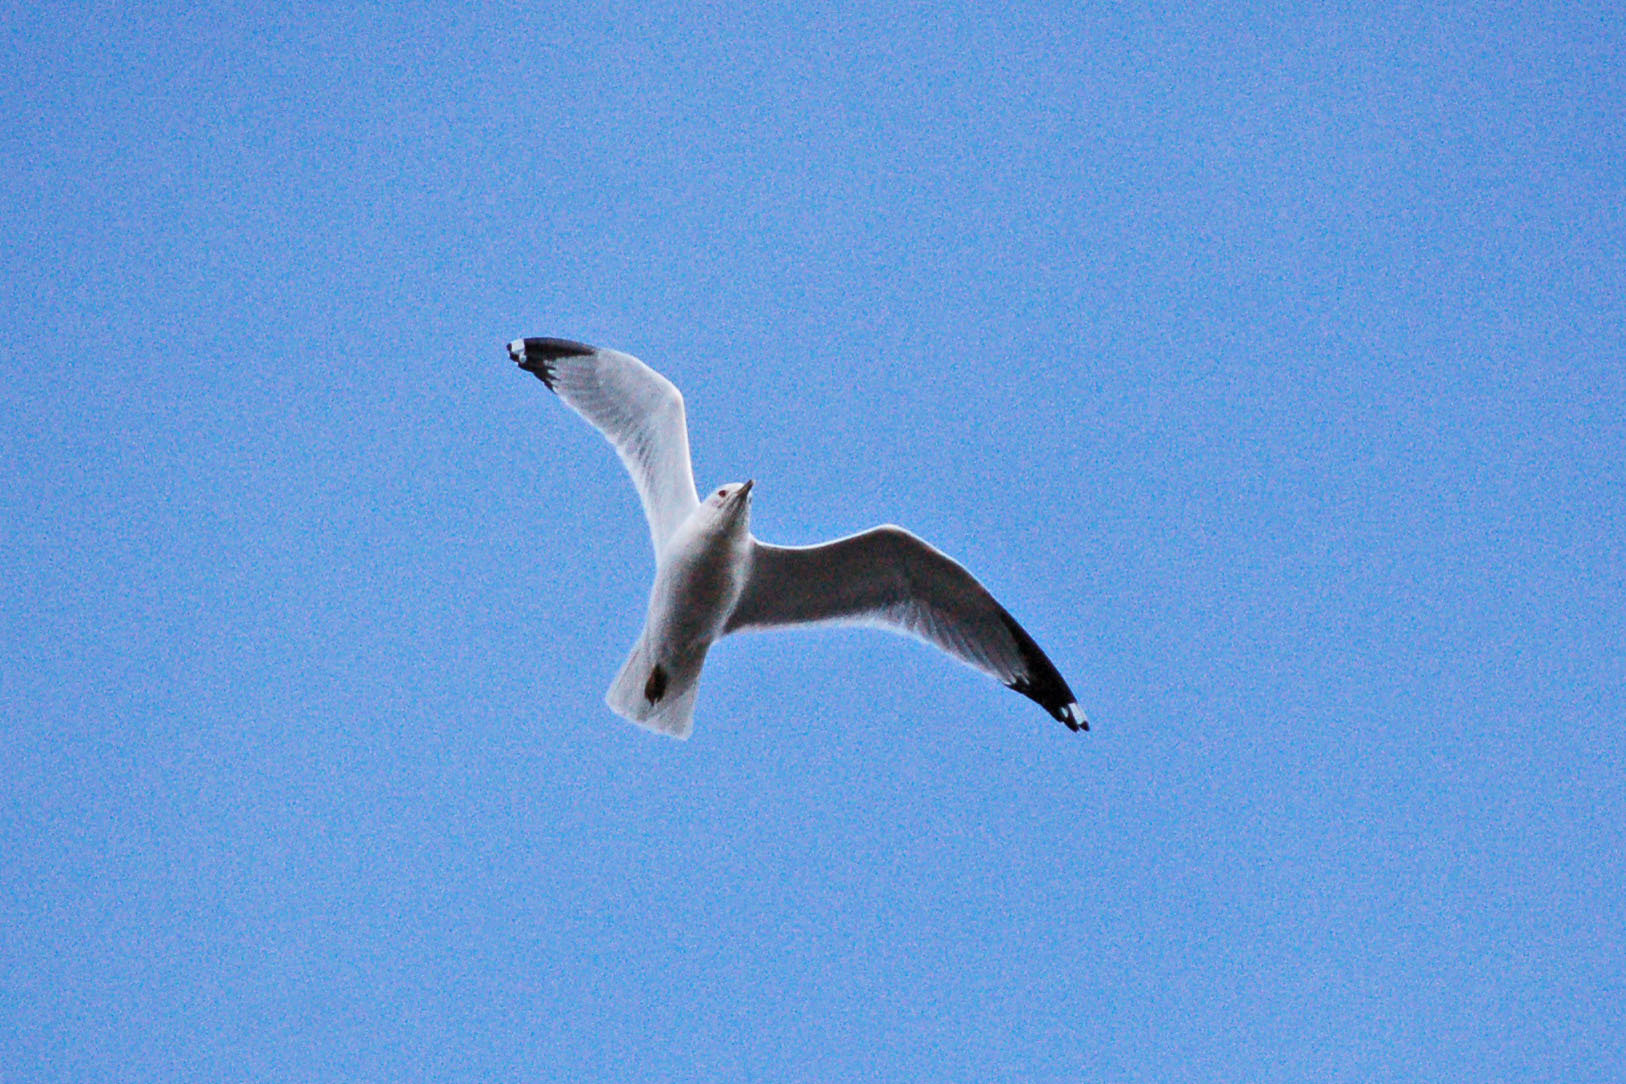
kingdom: Animalia
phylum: Chordata
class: Aves
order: Charadriiformes
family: Laridae
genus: Larus
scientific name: Larus delawarensis
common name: Ring-billed gull
